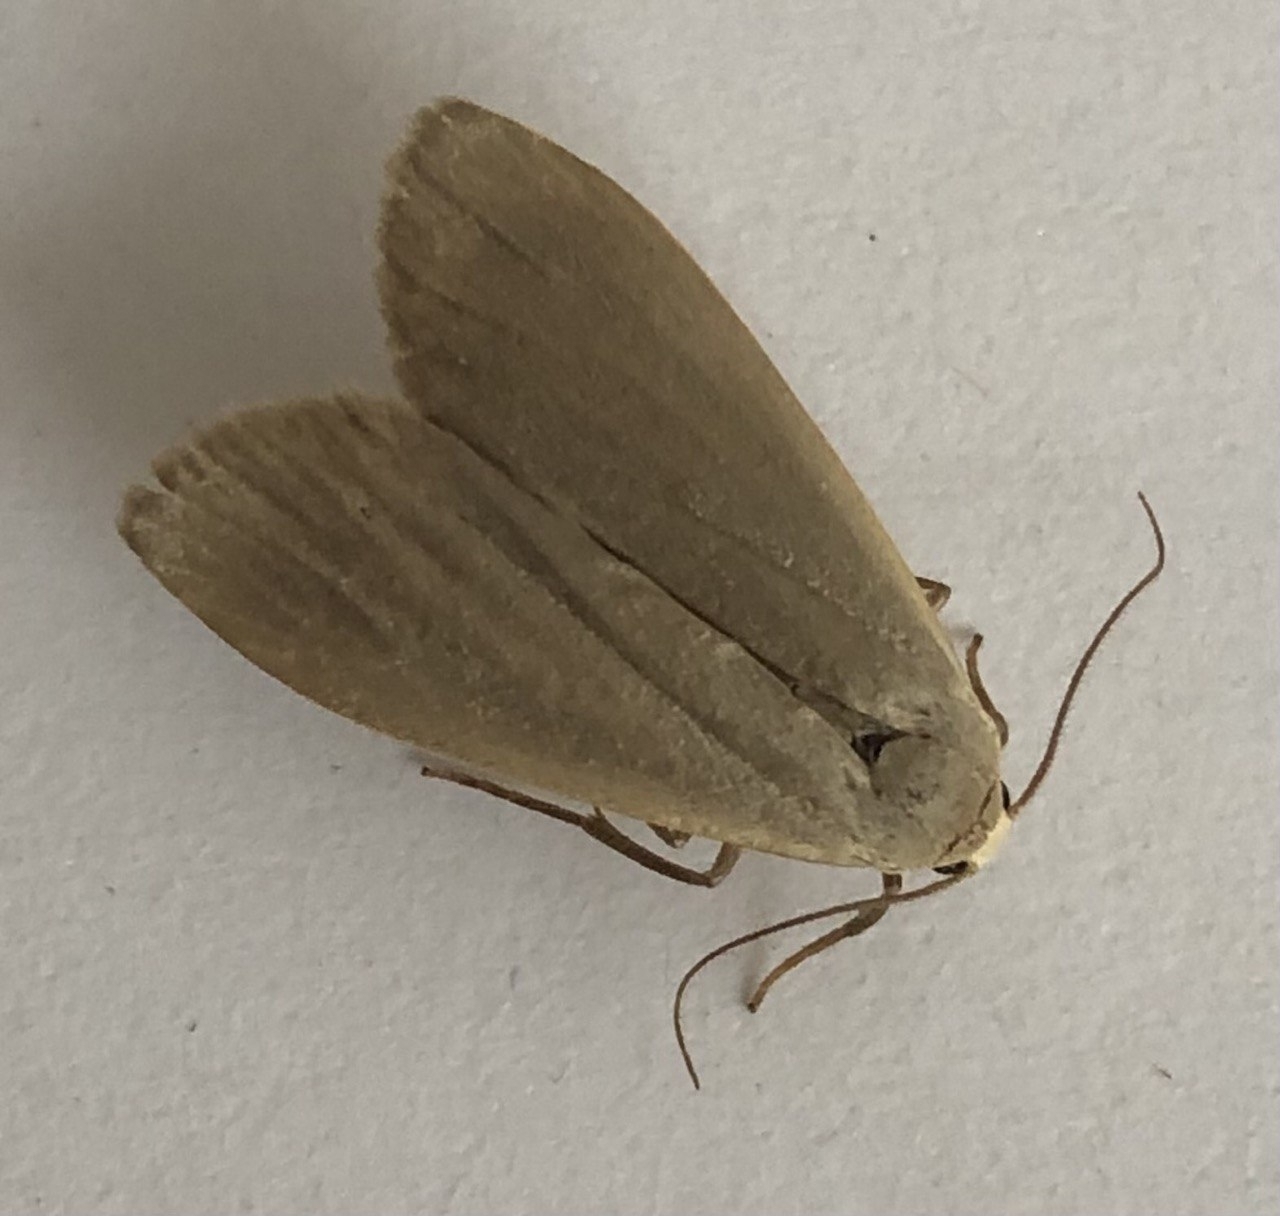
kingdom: Animalia
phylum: Arthropoda
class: Insecta
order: Lepidoptera
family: Erebidae
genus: Collita
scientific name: Collita griseola
